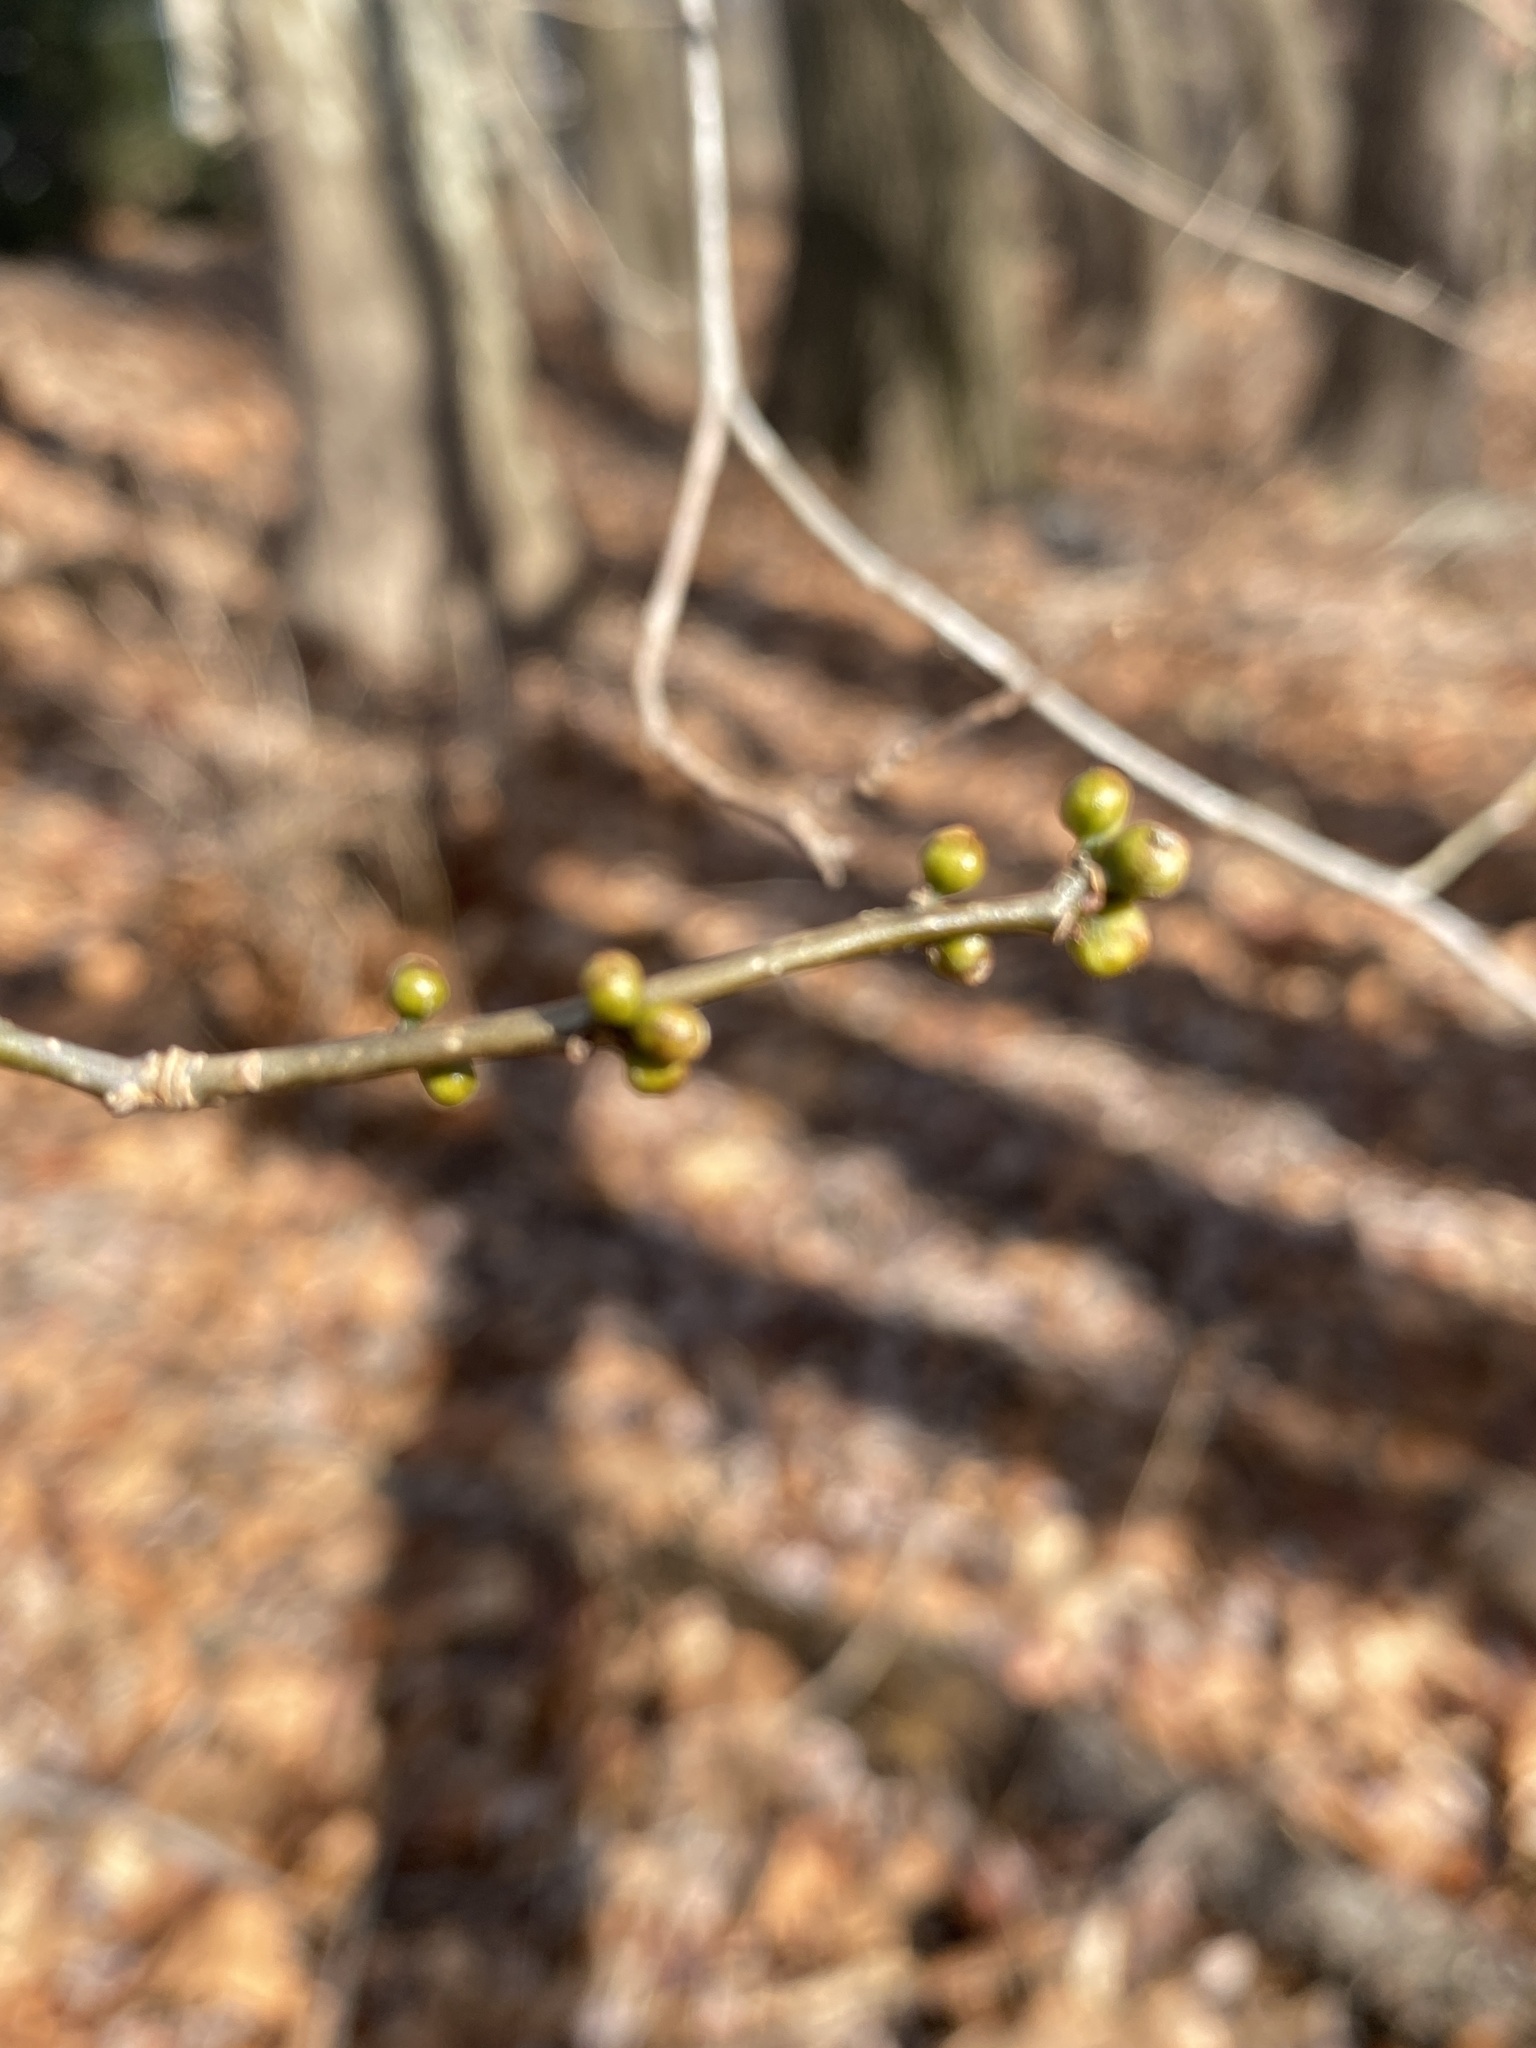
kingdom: Plantae
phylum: Tracheophyta
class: Magnoliopsida
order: Laurales
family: Lauraceae
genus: Lindera
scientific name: Lindera benzoin
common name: Spicebush
